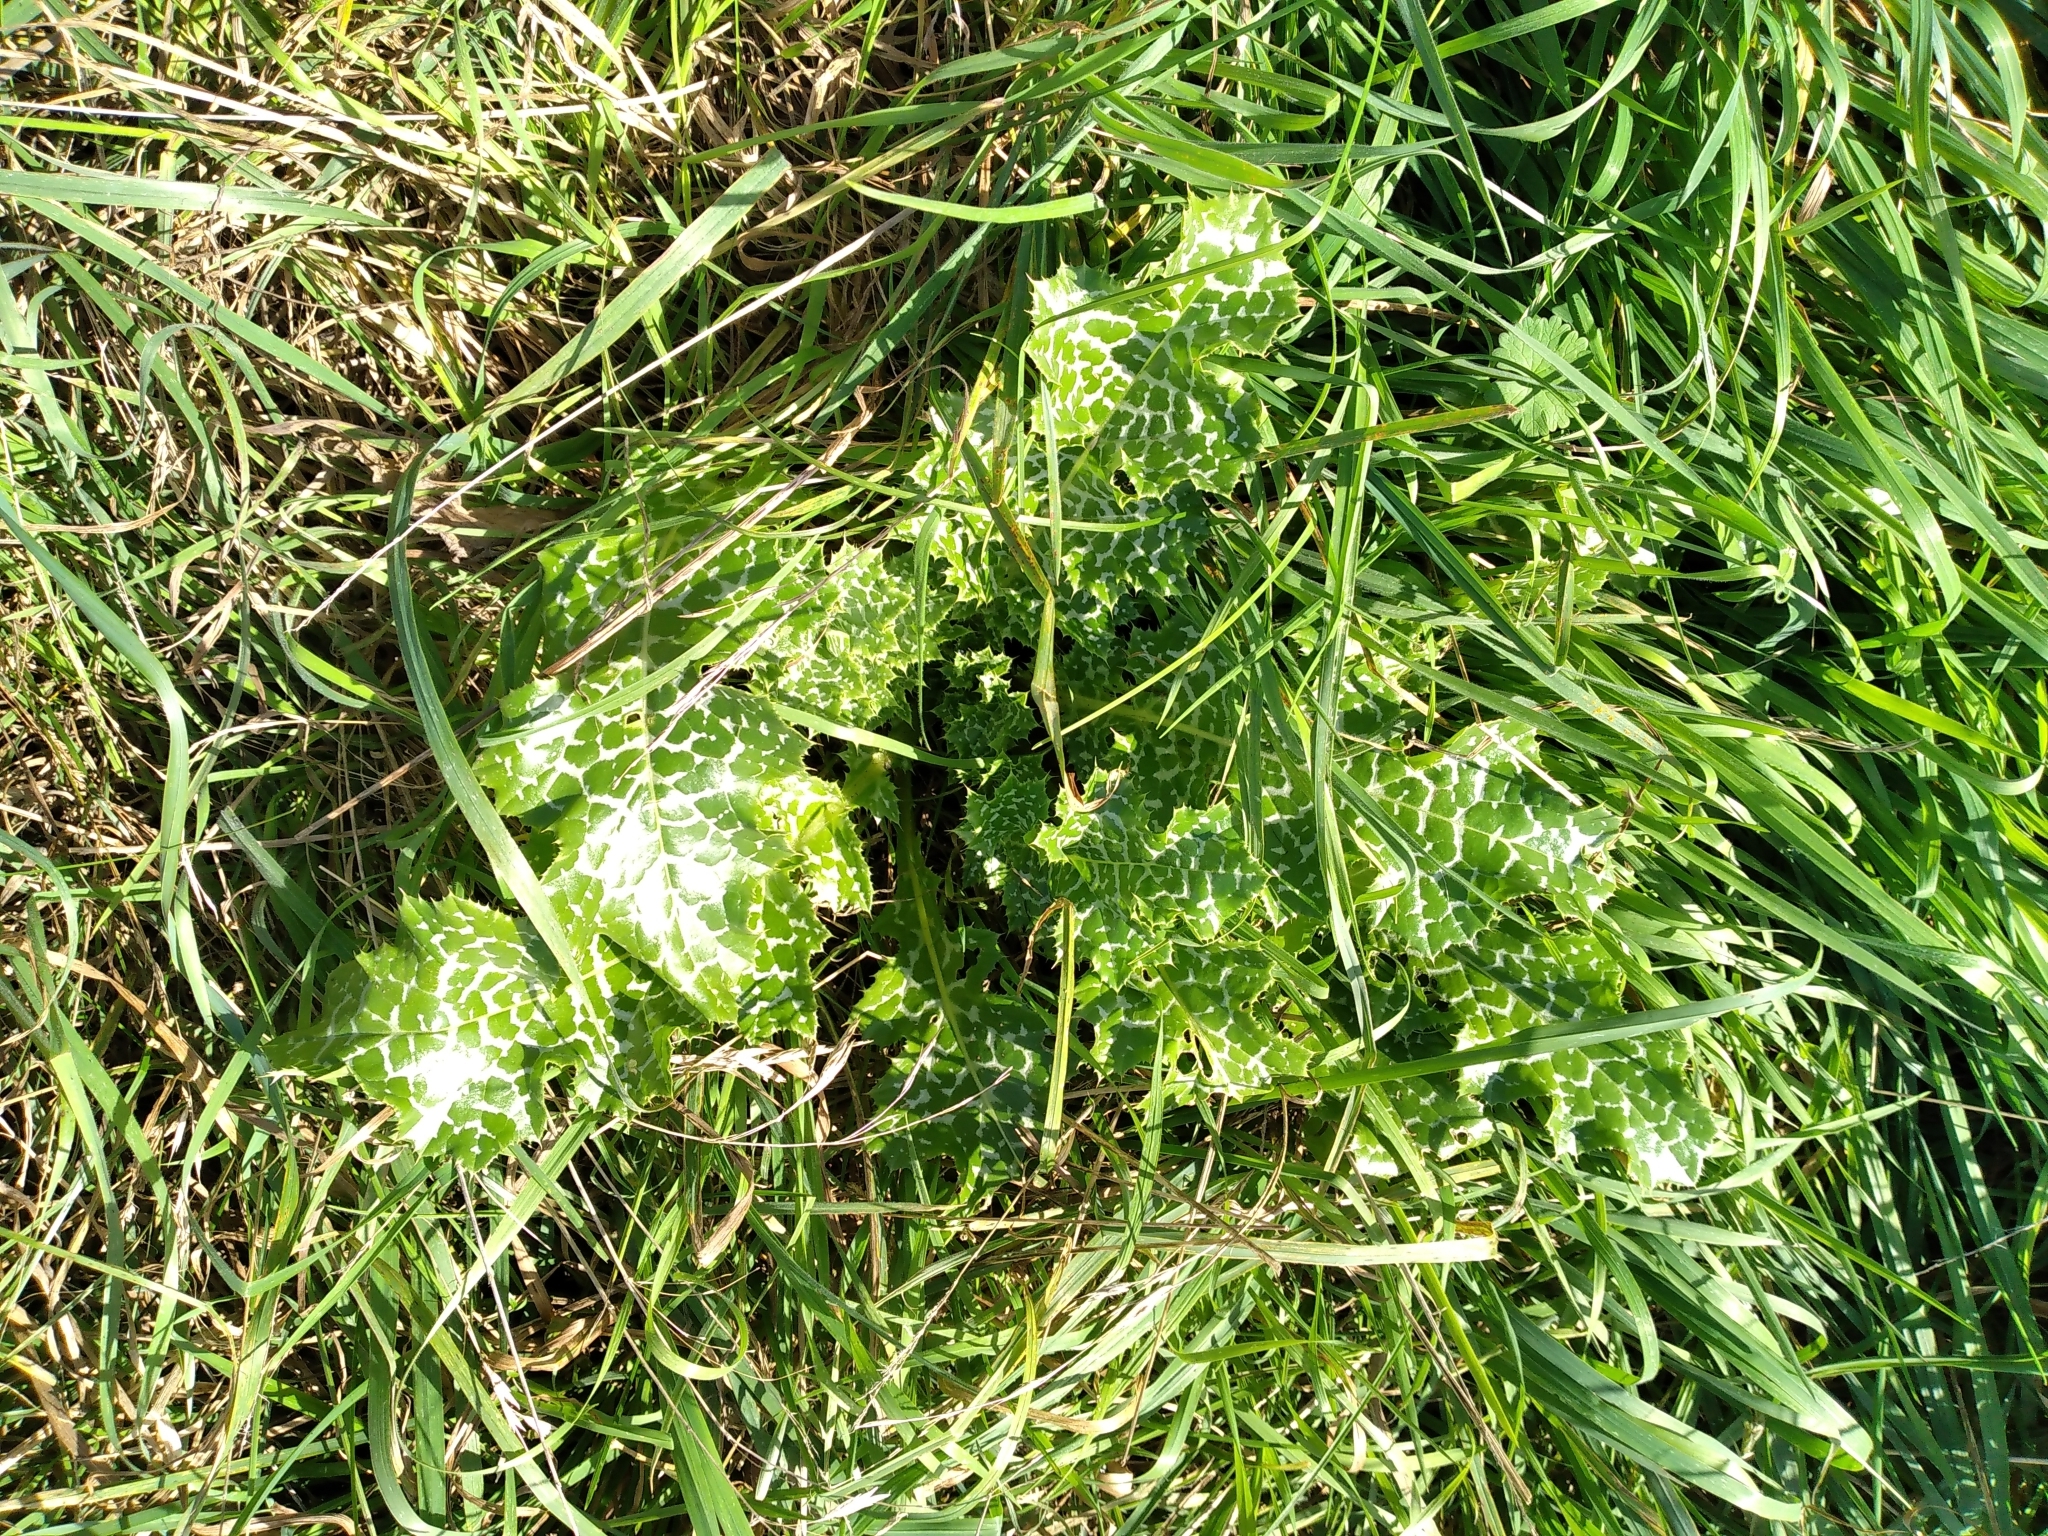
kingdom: Plantae
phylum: Tracheophyta
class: Magnoliopsida
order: Asterales
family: Asteraceae
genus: Silybum
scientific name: Silybum marianum
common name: Milk thistle
